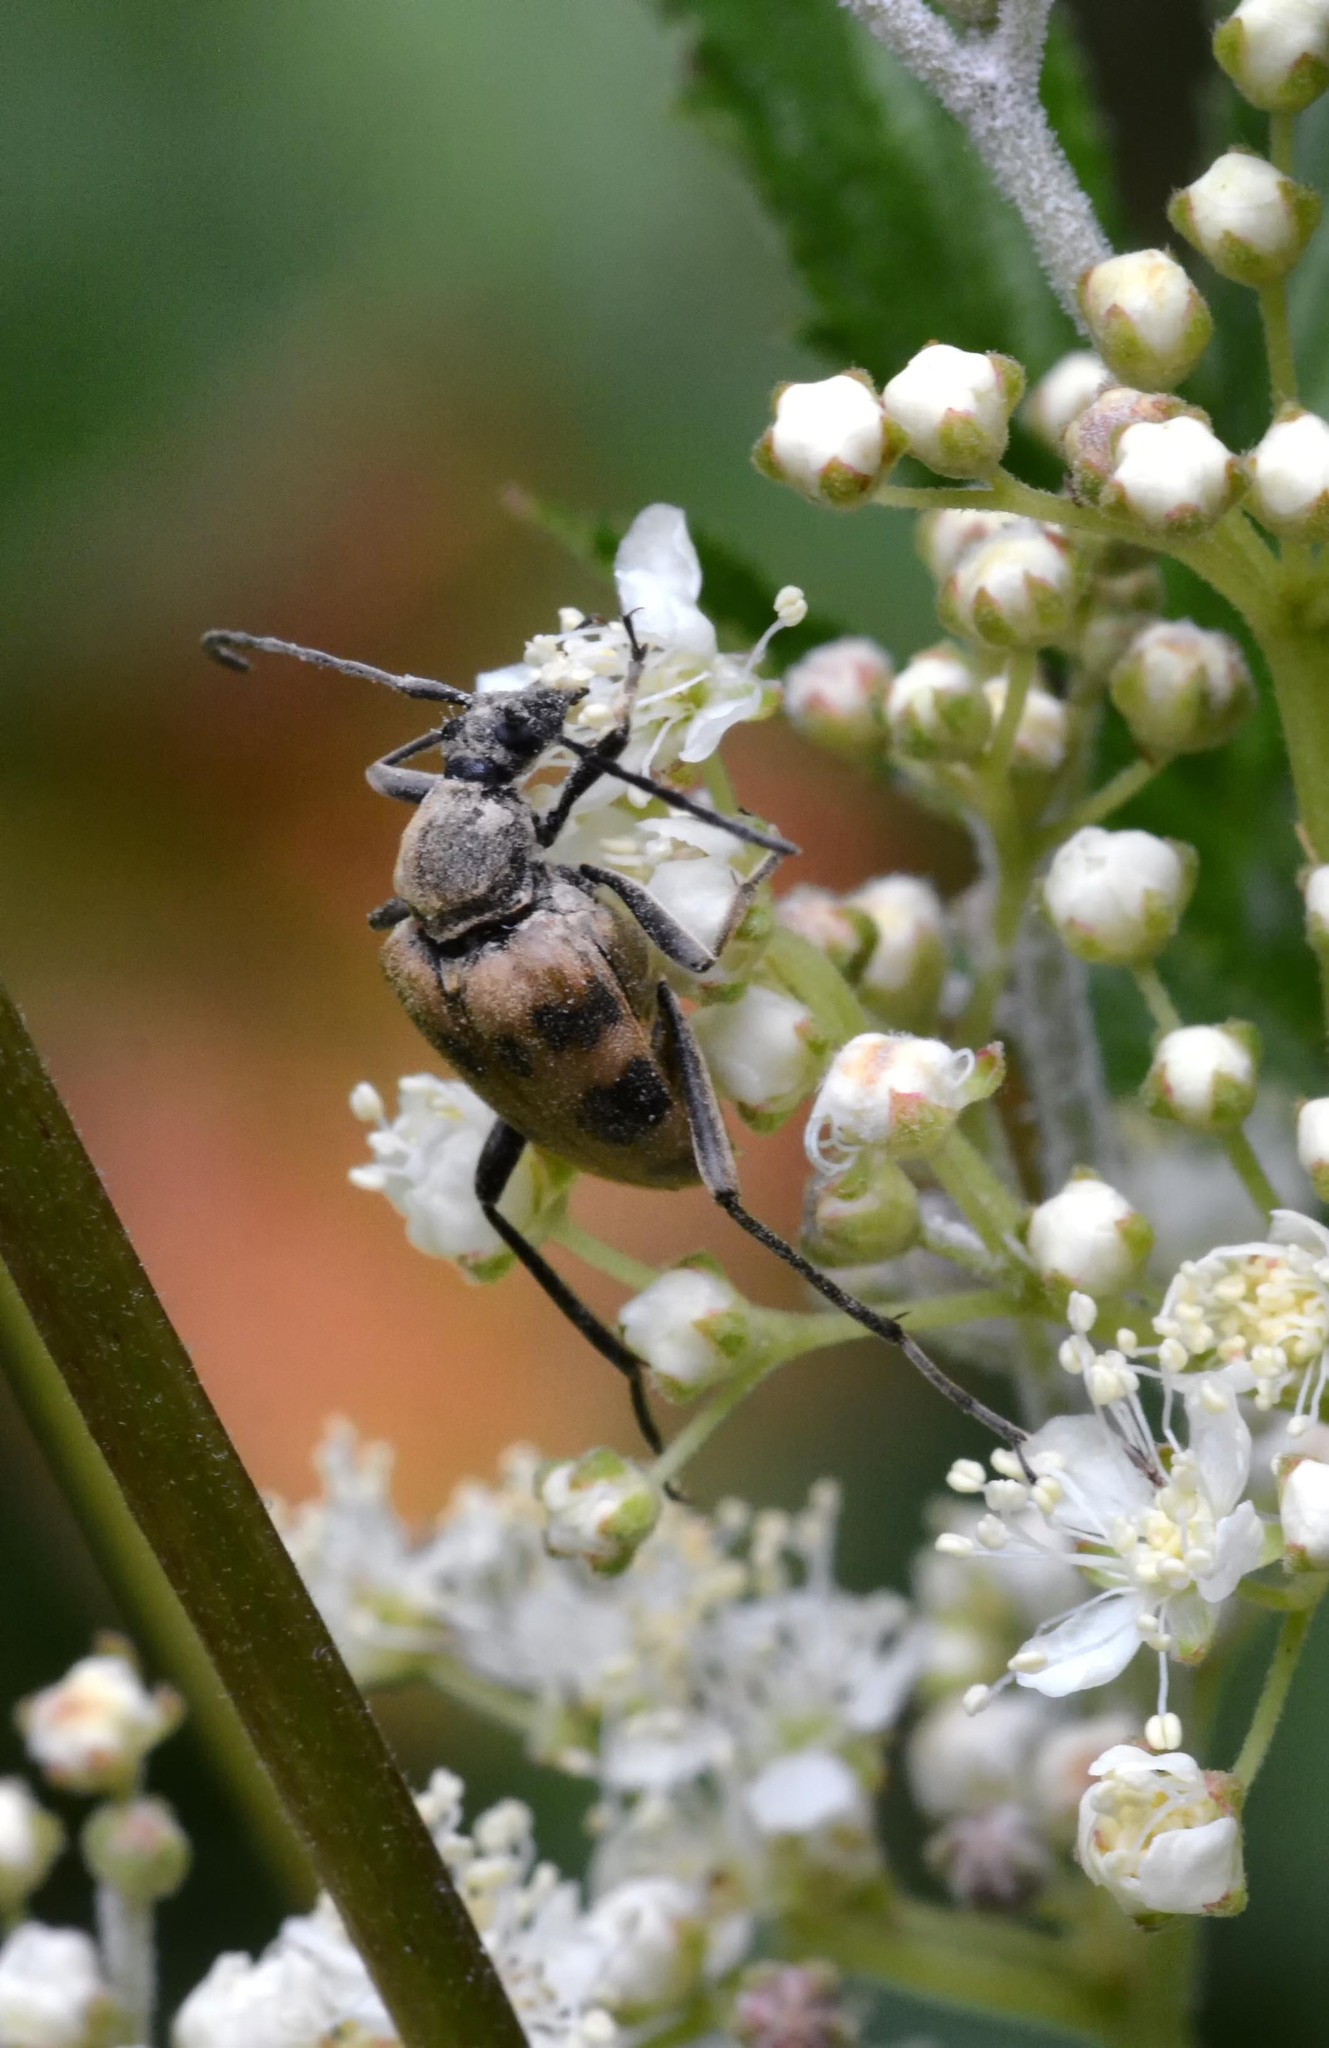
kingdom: Animalia
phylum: Arthropoda
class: Insecta
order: Coleoptera
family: Cerambycidae
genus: Pachytodes
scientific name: Pachytodes cerambyciformis
